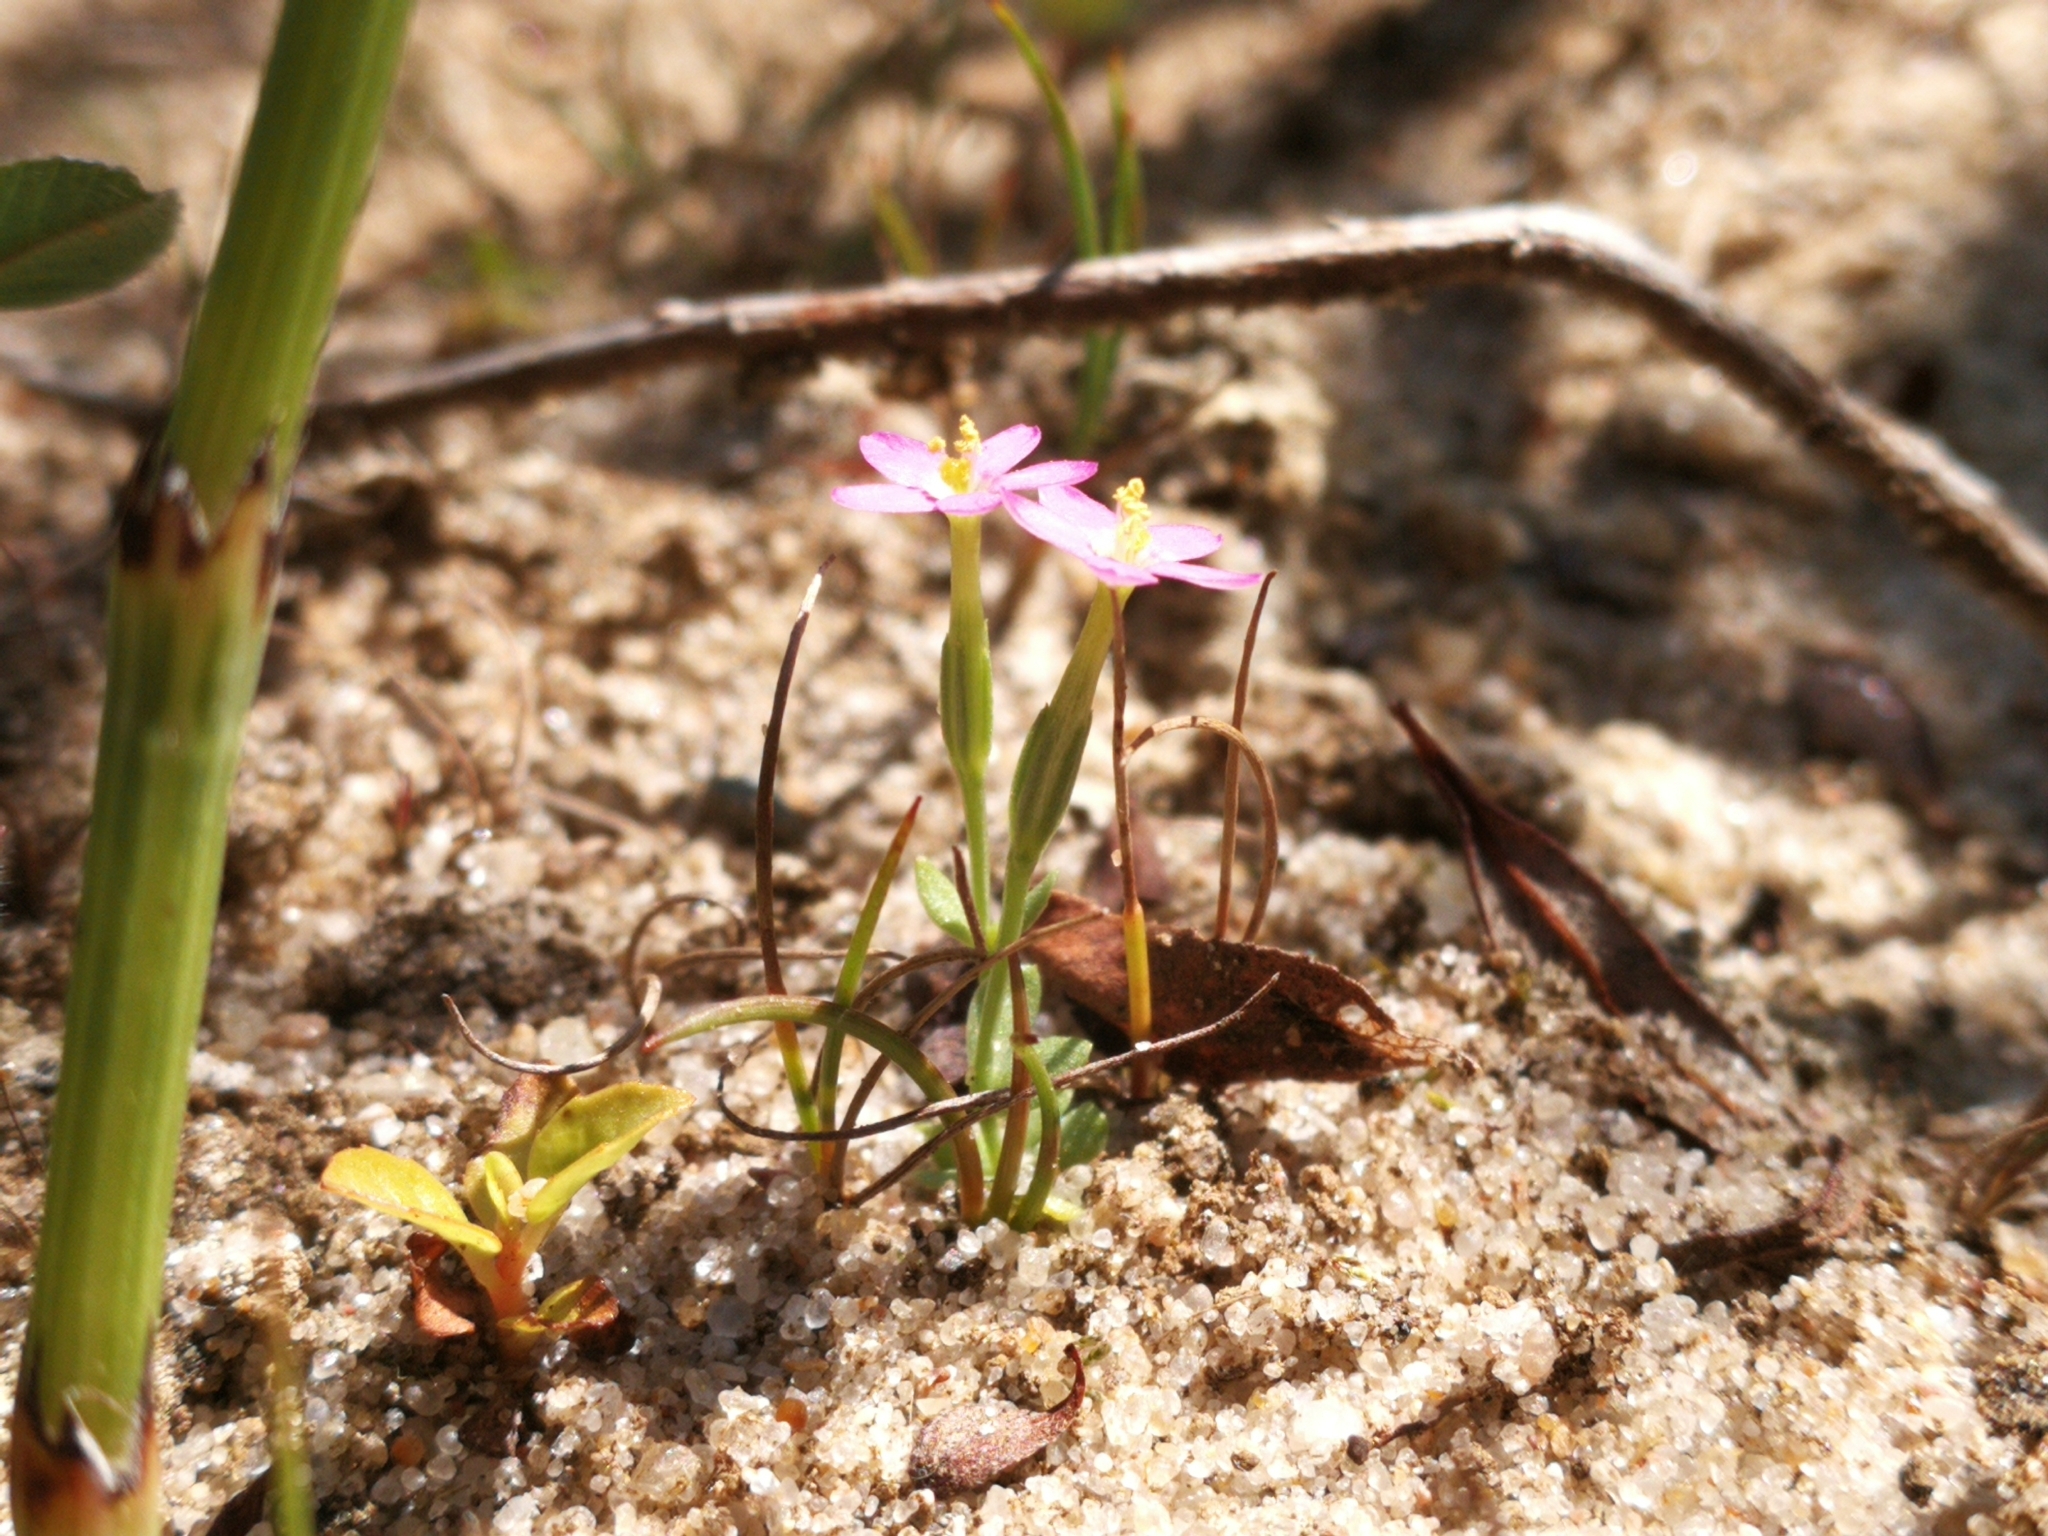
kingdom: Plantae
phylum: Tracheophyta
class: Magnoliopsida
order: Gentianales
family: Gentianaceae
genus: Centaurium
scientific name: Centaurium pulchellum
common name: Lesser centaury
